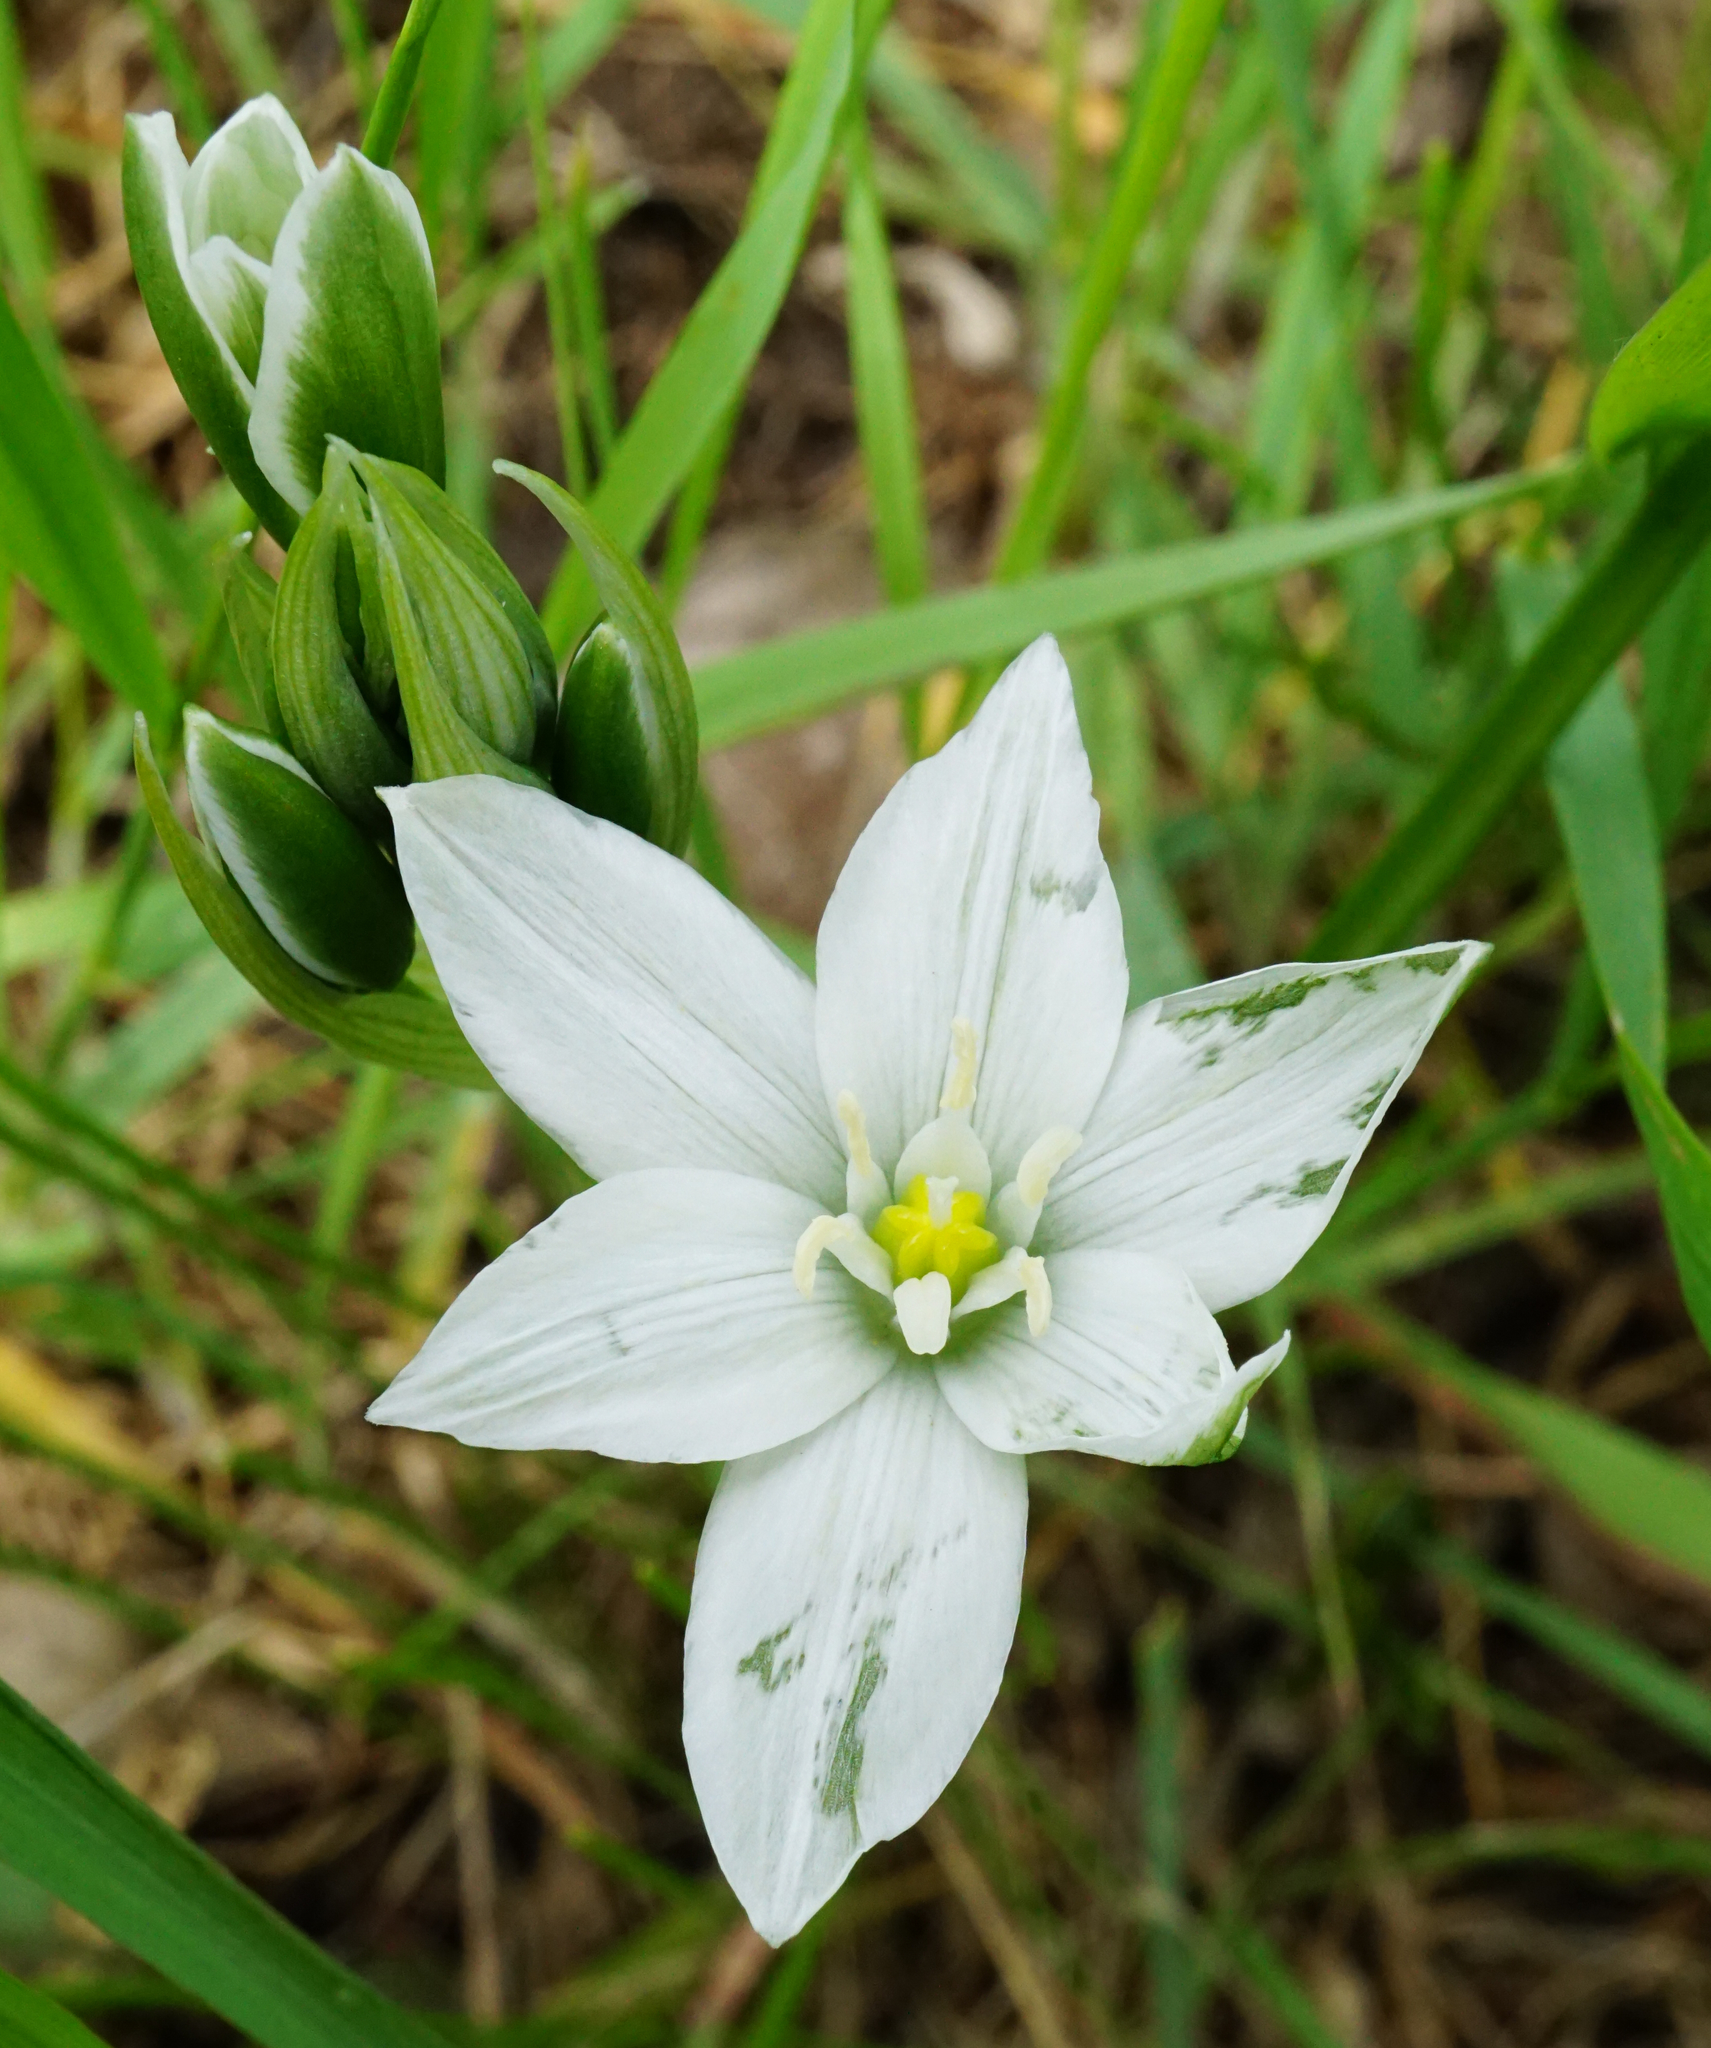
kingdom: Plantae
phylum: Tracheophyta
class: Liliopsida
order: Asparagales
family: Asparagaceae
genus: Ornithogalum
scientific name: Ornithogalum orthophyllum
